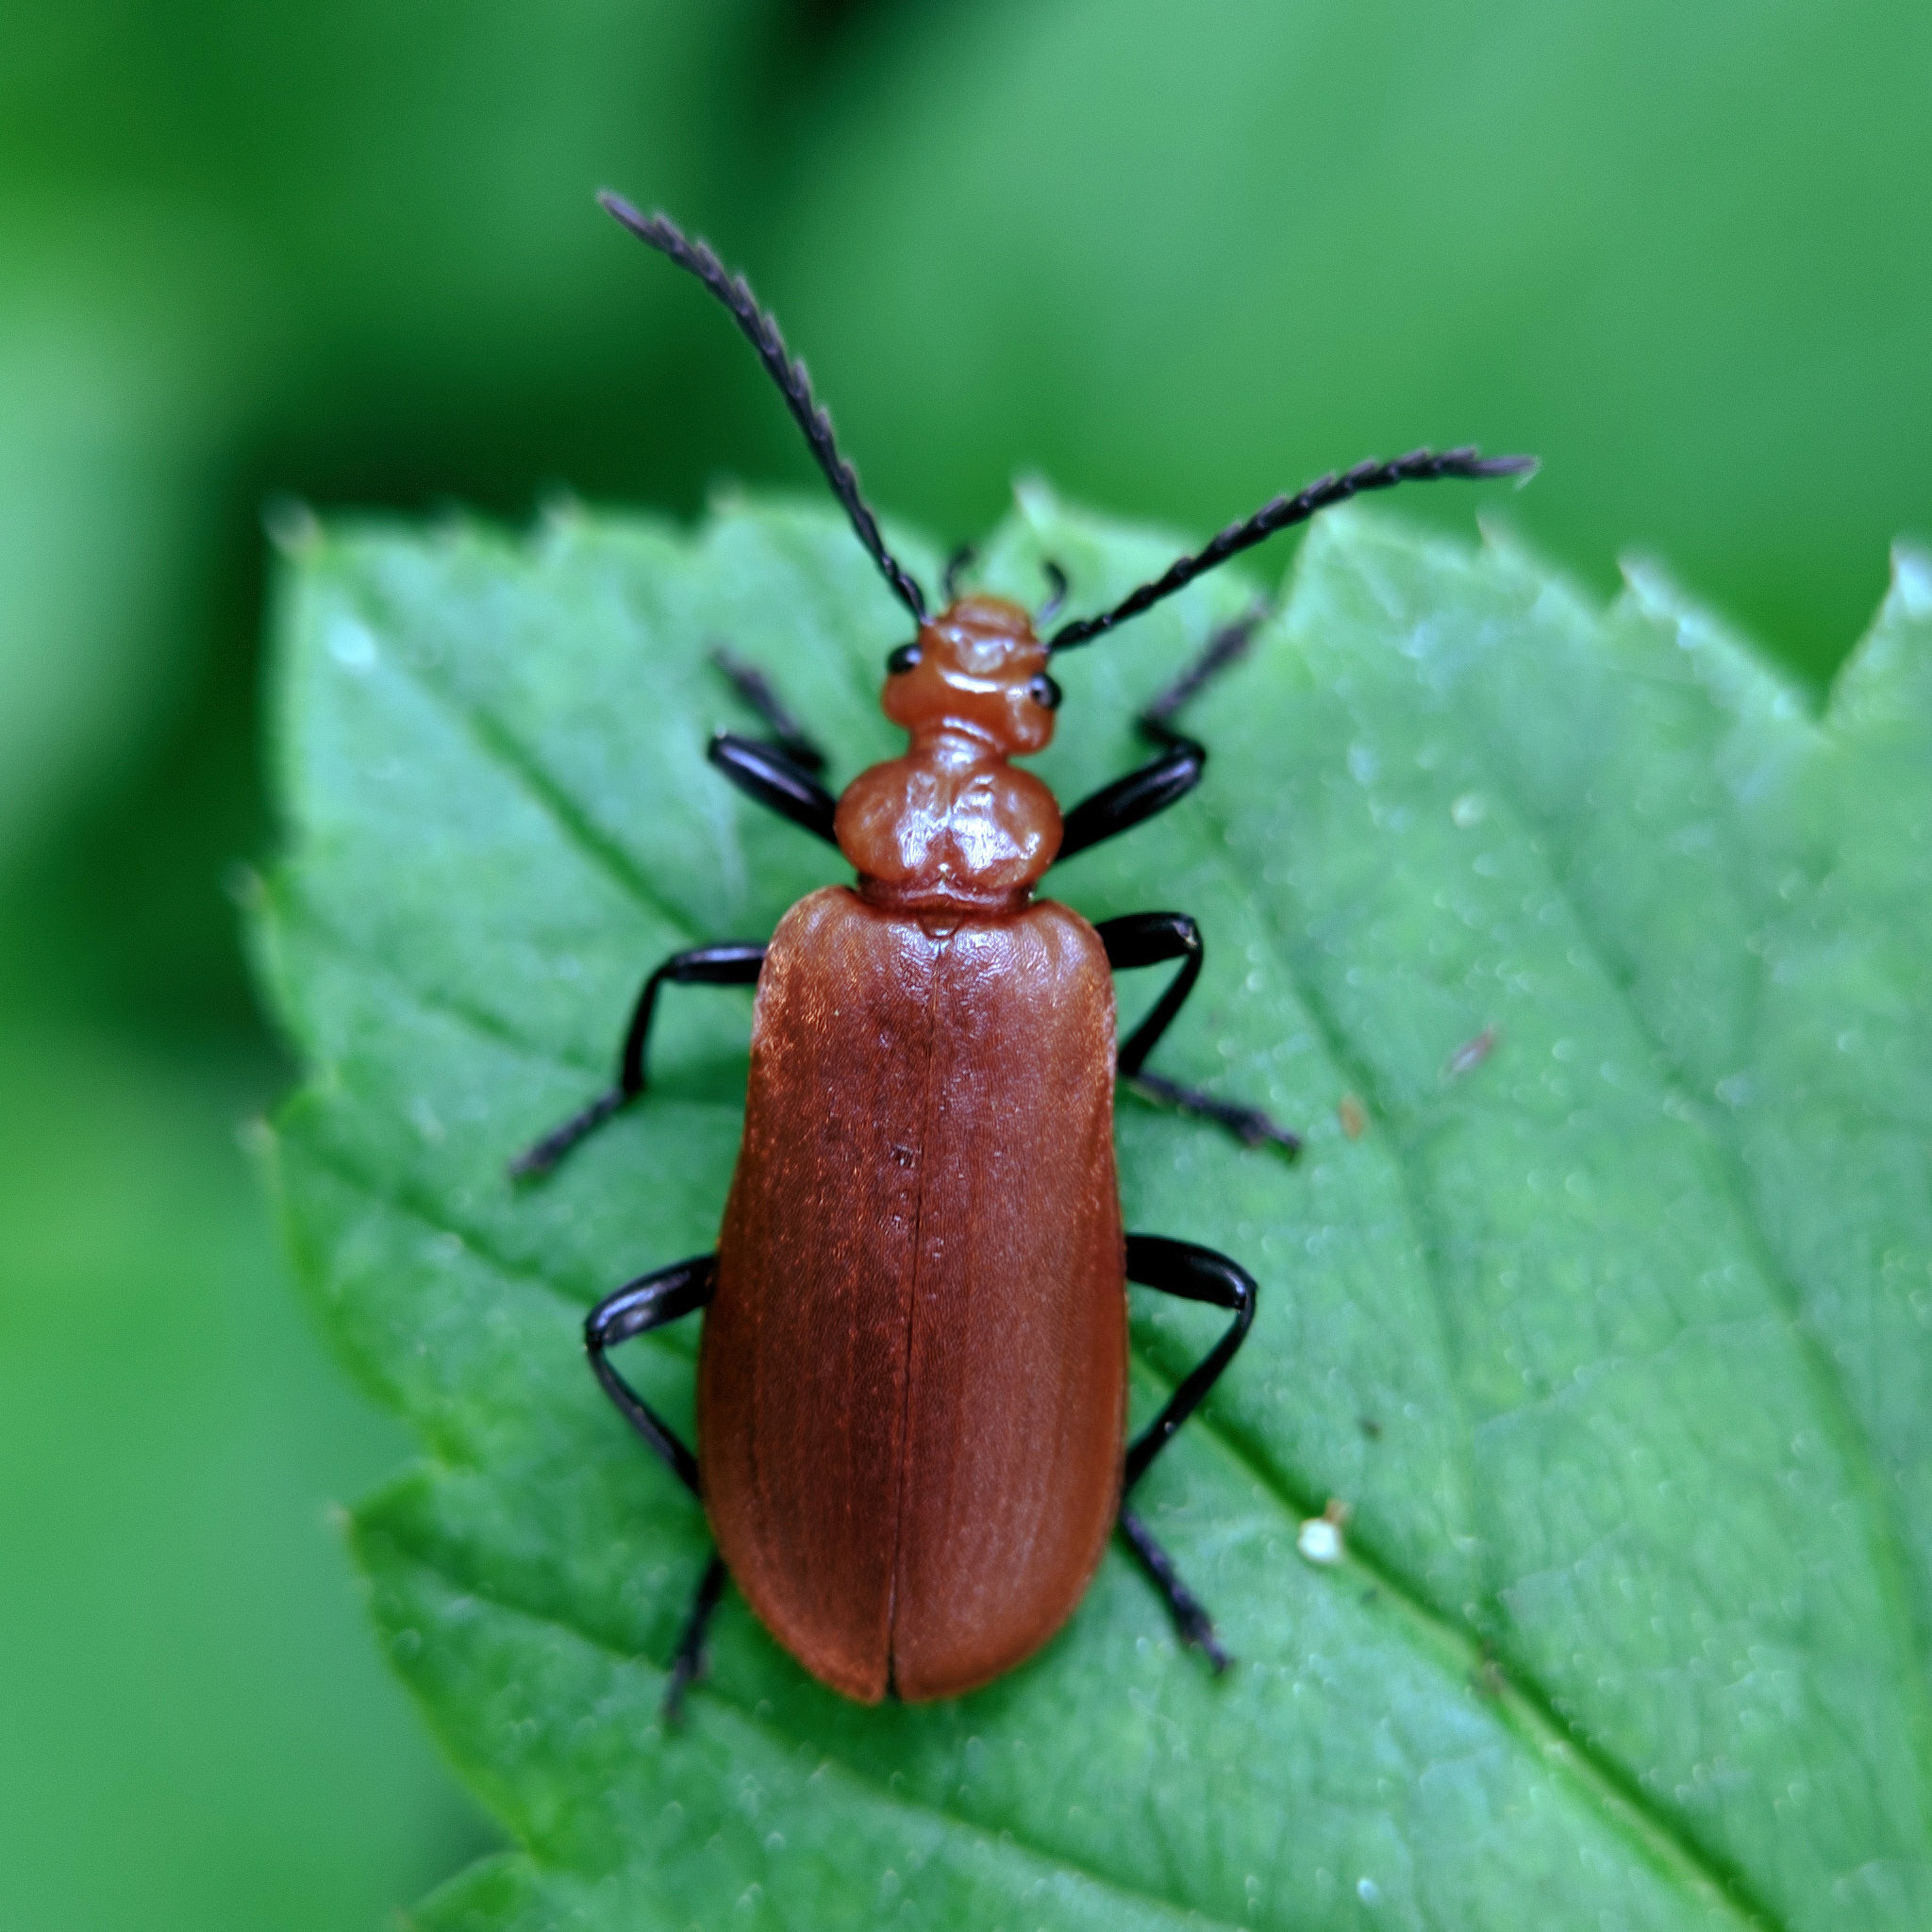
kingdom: Animalia
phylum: Arthropoda
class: Insecta
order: Coleoptera
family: Pyrochroidae
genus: Pyrochroa
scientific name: Pyrochroa serraticornis
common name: Red-headed cardinal beetle
